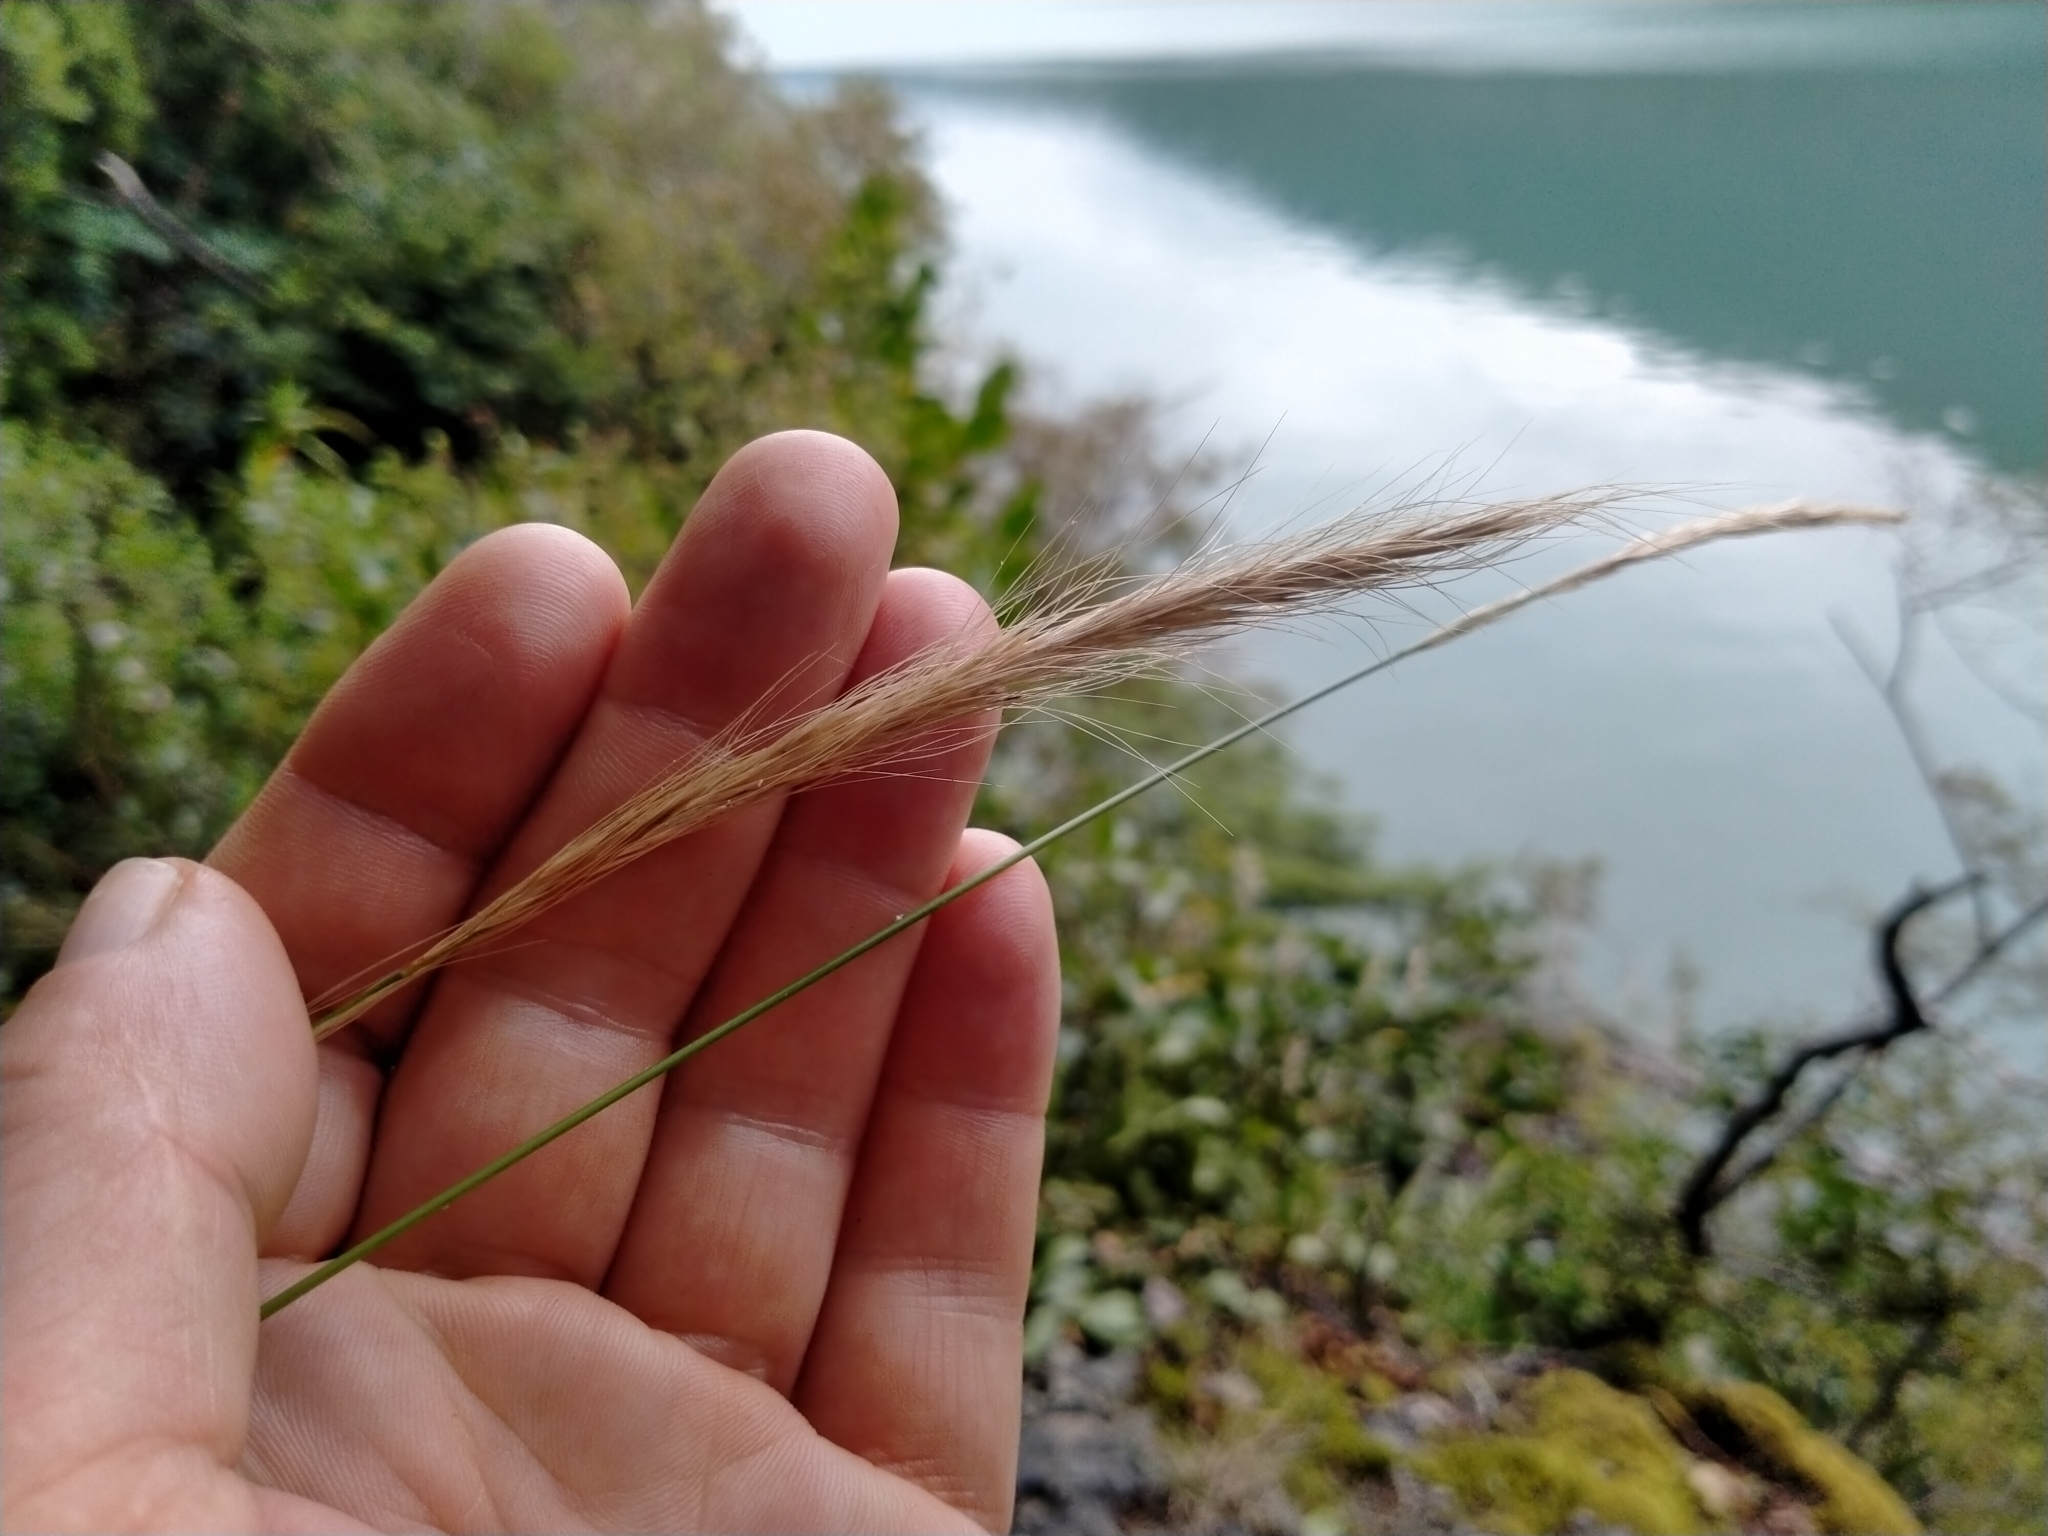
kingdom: Plantae
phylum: Tracheophyta
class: Liliopsida
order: Poales
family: Poaceae
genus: Dichelachne
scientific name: Dichelachne crinita
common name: Clovenfoot plumegrass
